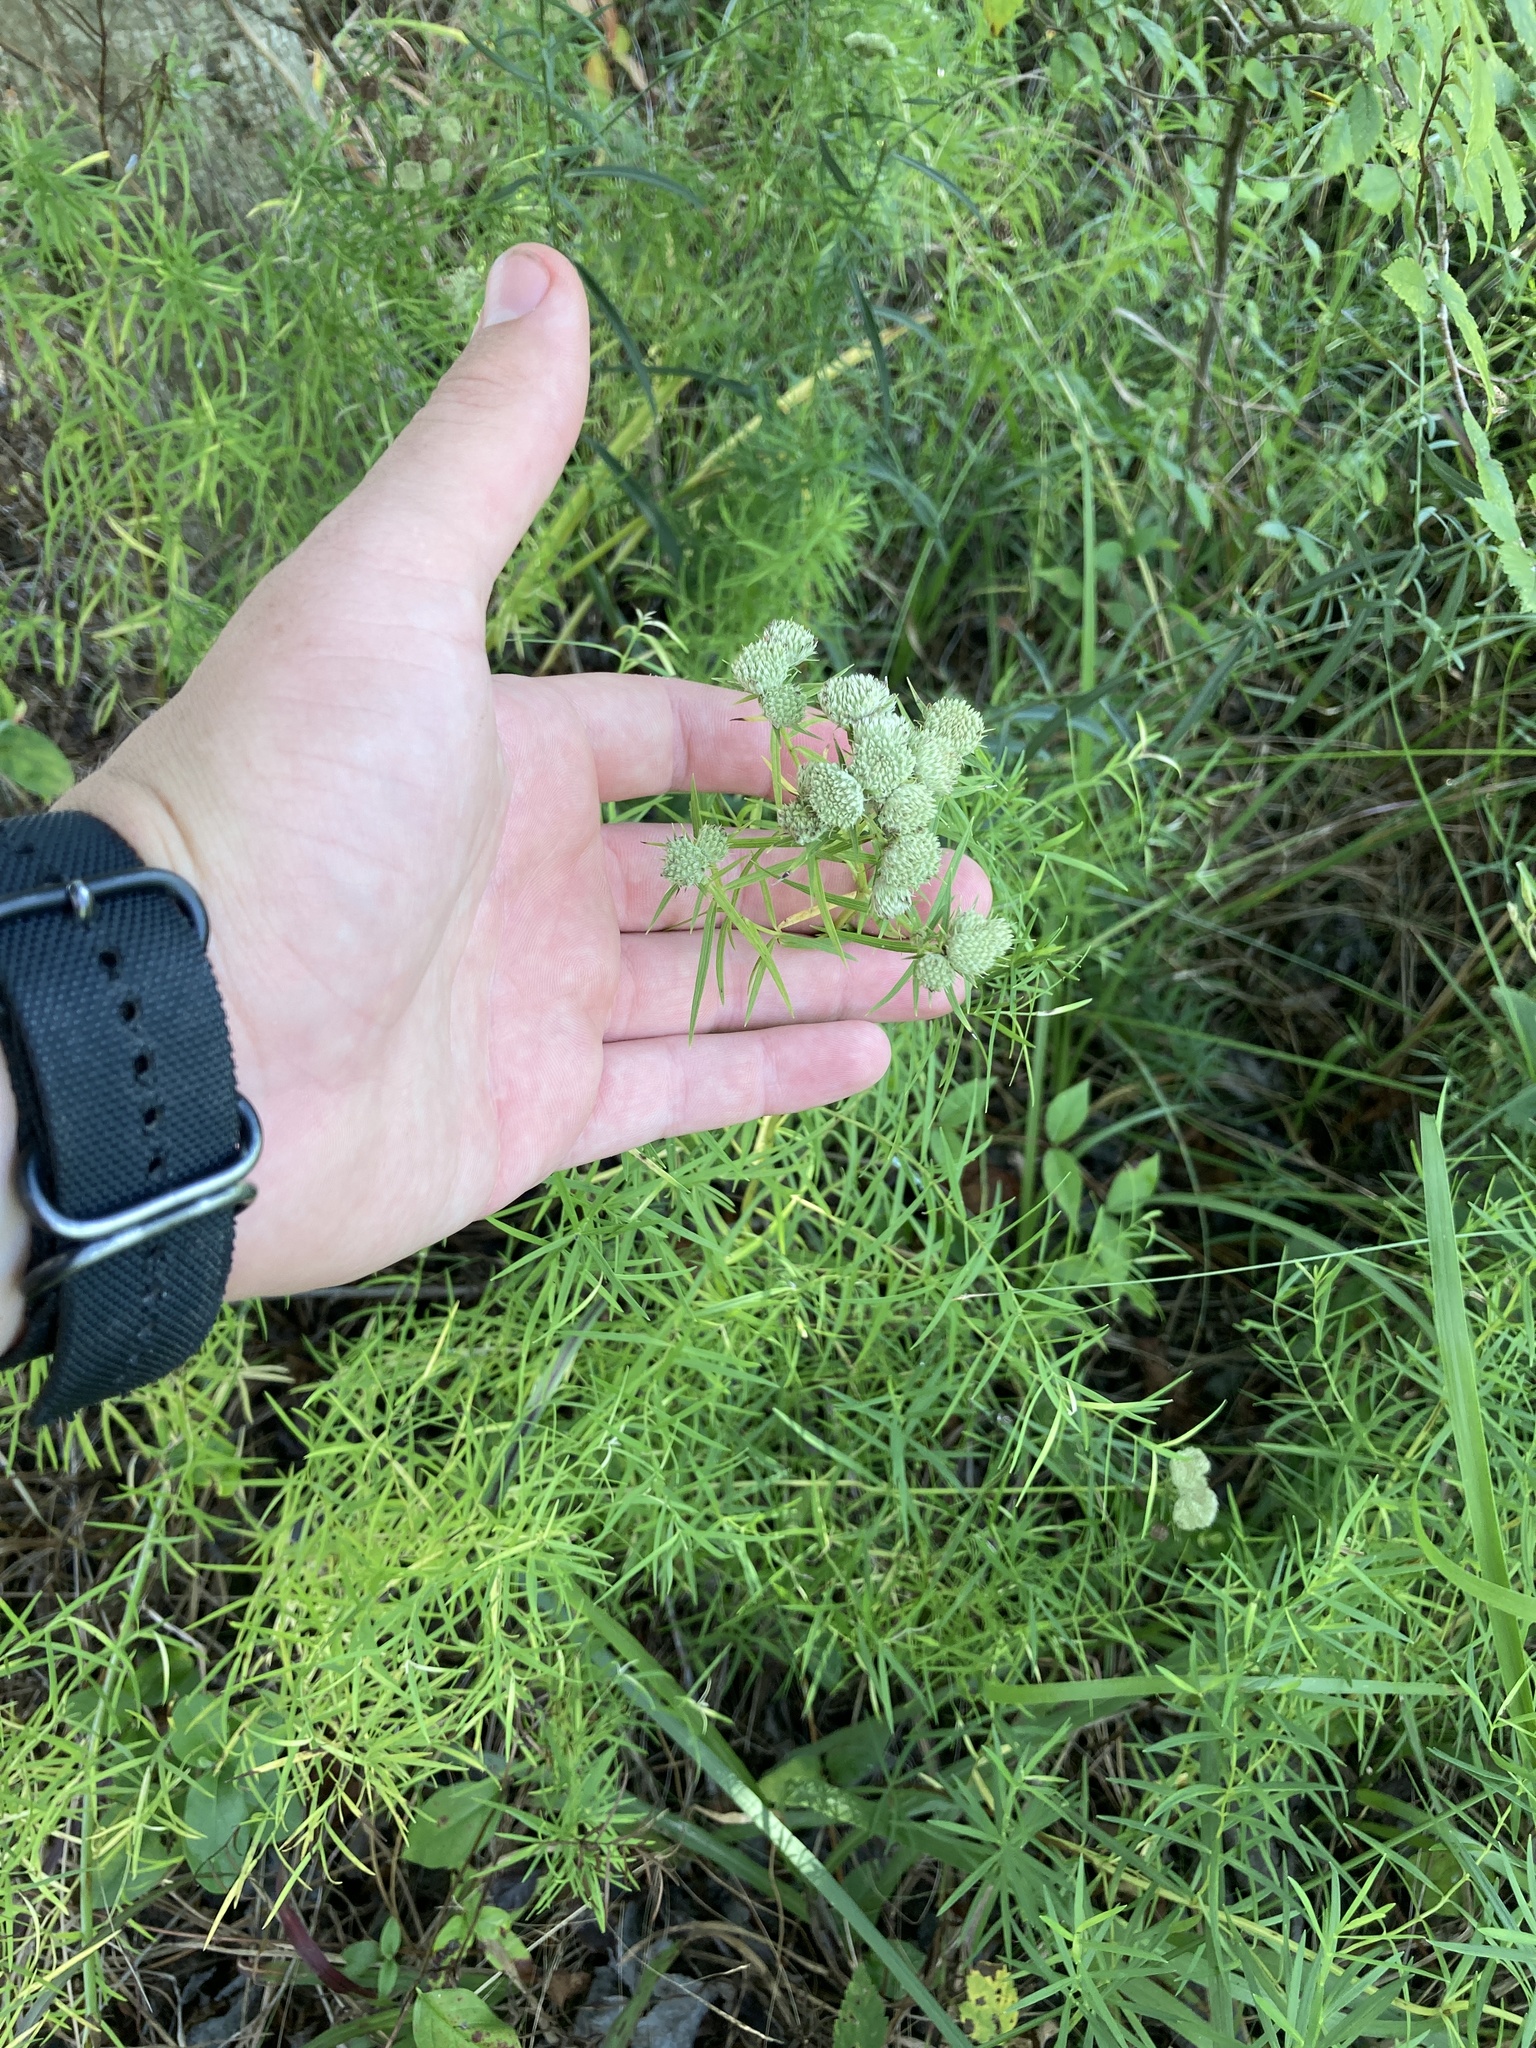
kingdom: Plantae
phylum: Tracheophyta
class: Magnoliopsida
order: Lamiales
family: Lamiaceae
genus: Pycnanthemum
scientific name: Pycnanthemum tenuifolium
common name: Narrow-leaf mountain-mint
